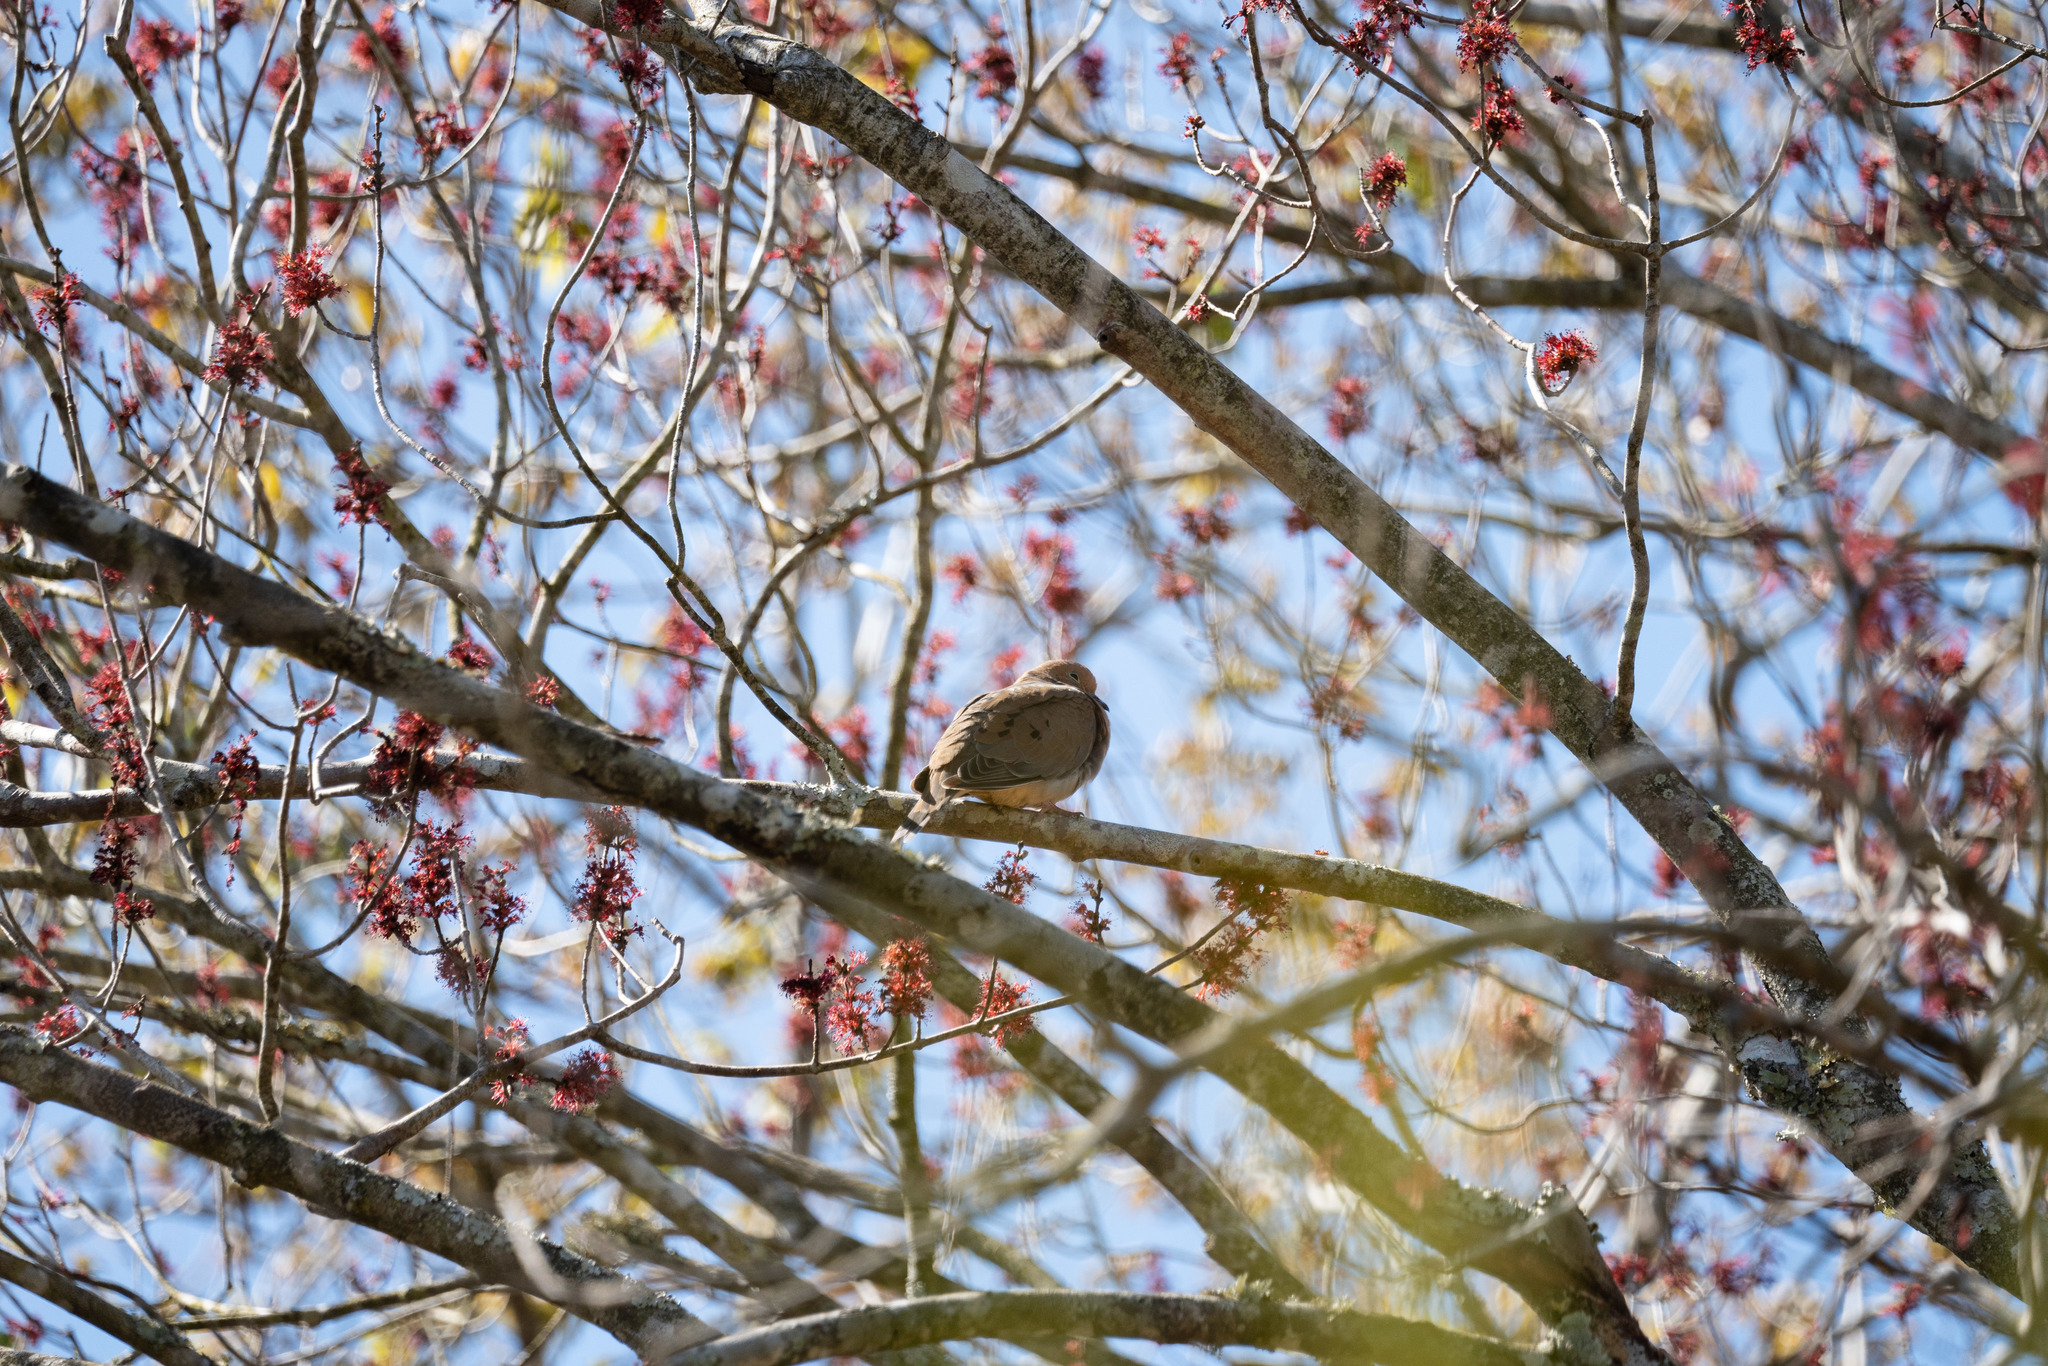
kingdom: Animalia
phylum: Chordata
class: Aves
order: Columbiformes
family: Columbidae
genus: Zenaida
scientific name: Zenaida macroura
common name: Mourning dove
